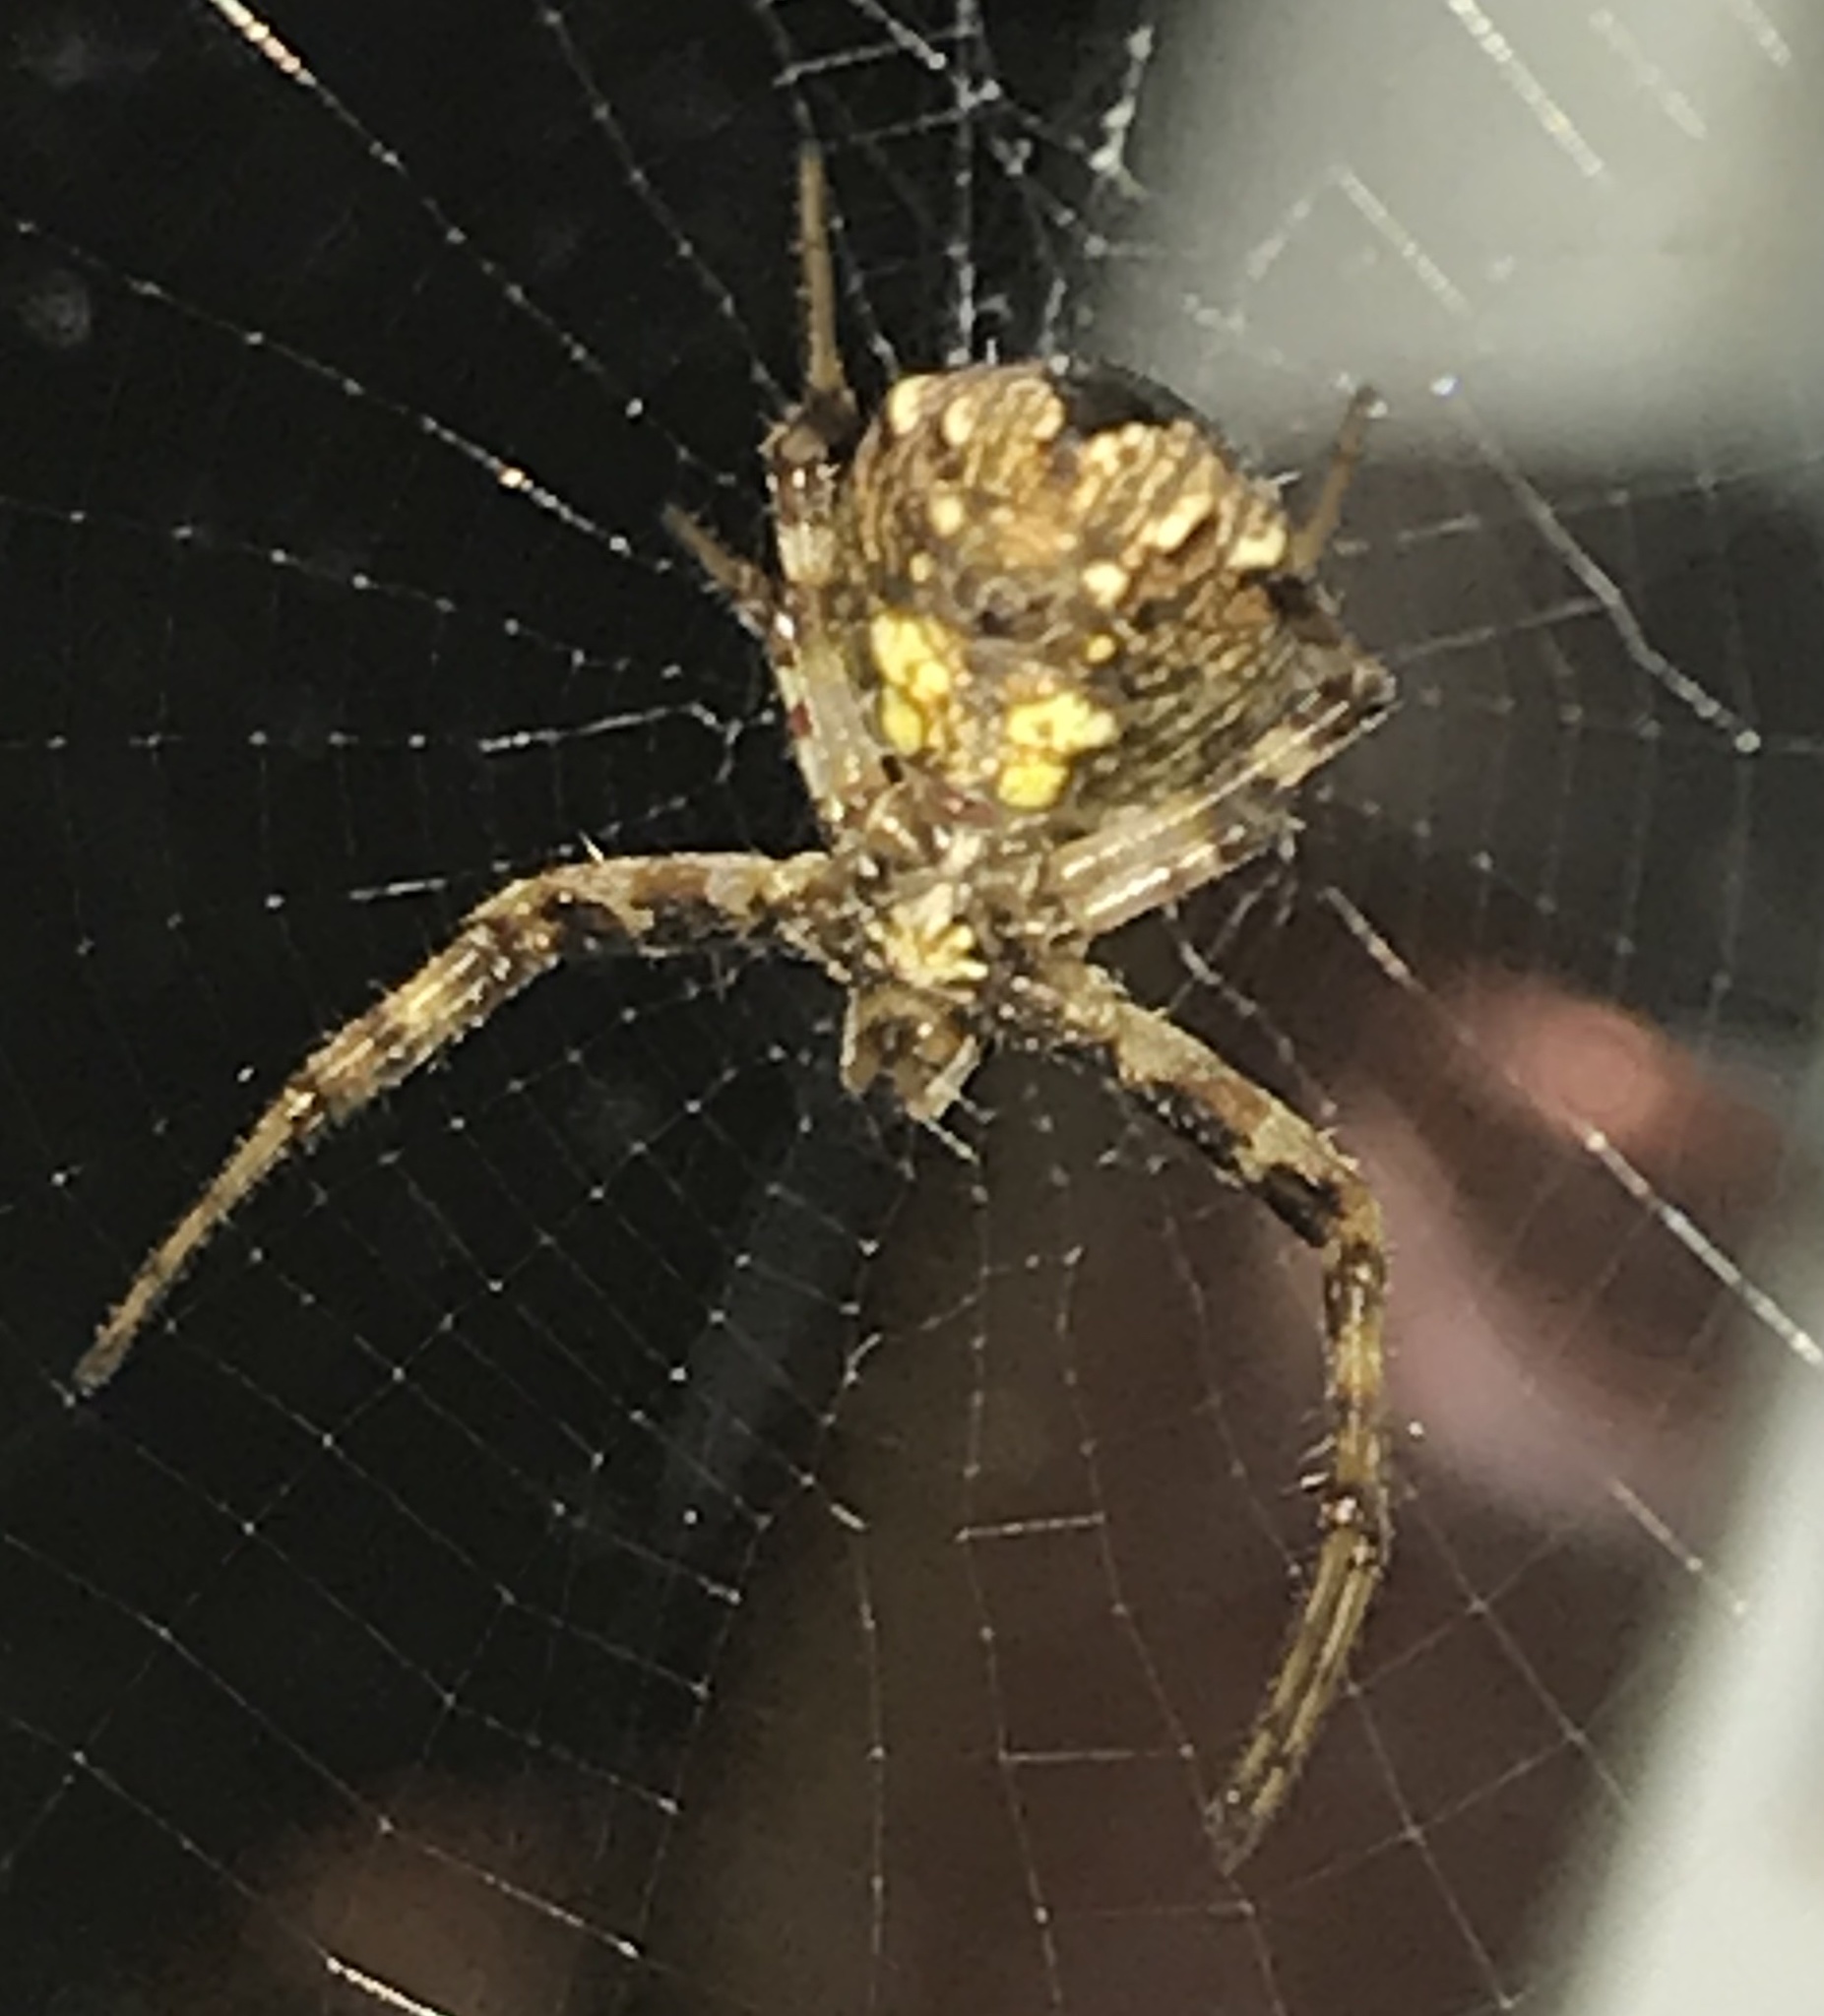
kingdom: Animalia
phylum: Arthropoda
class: Arachnida
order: Araneae
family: Araneidae
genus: Gea
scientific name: Gea heptagon
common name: Orb weavers
